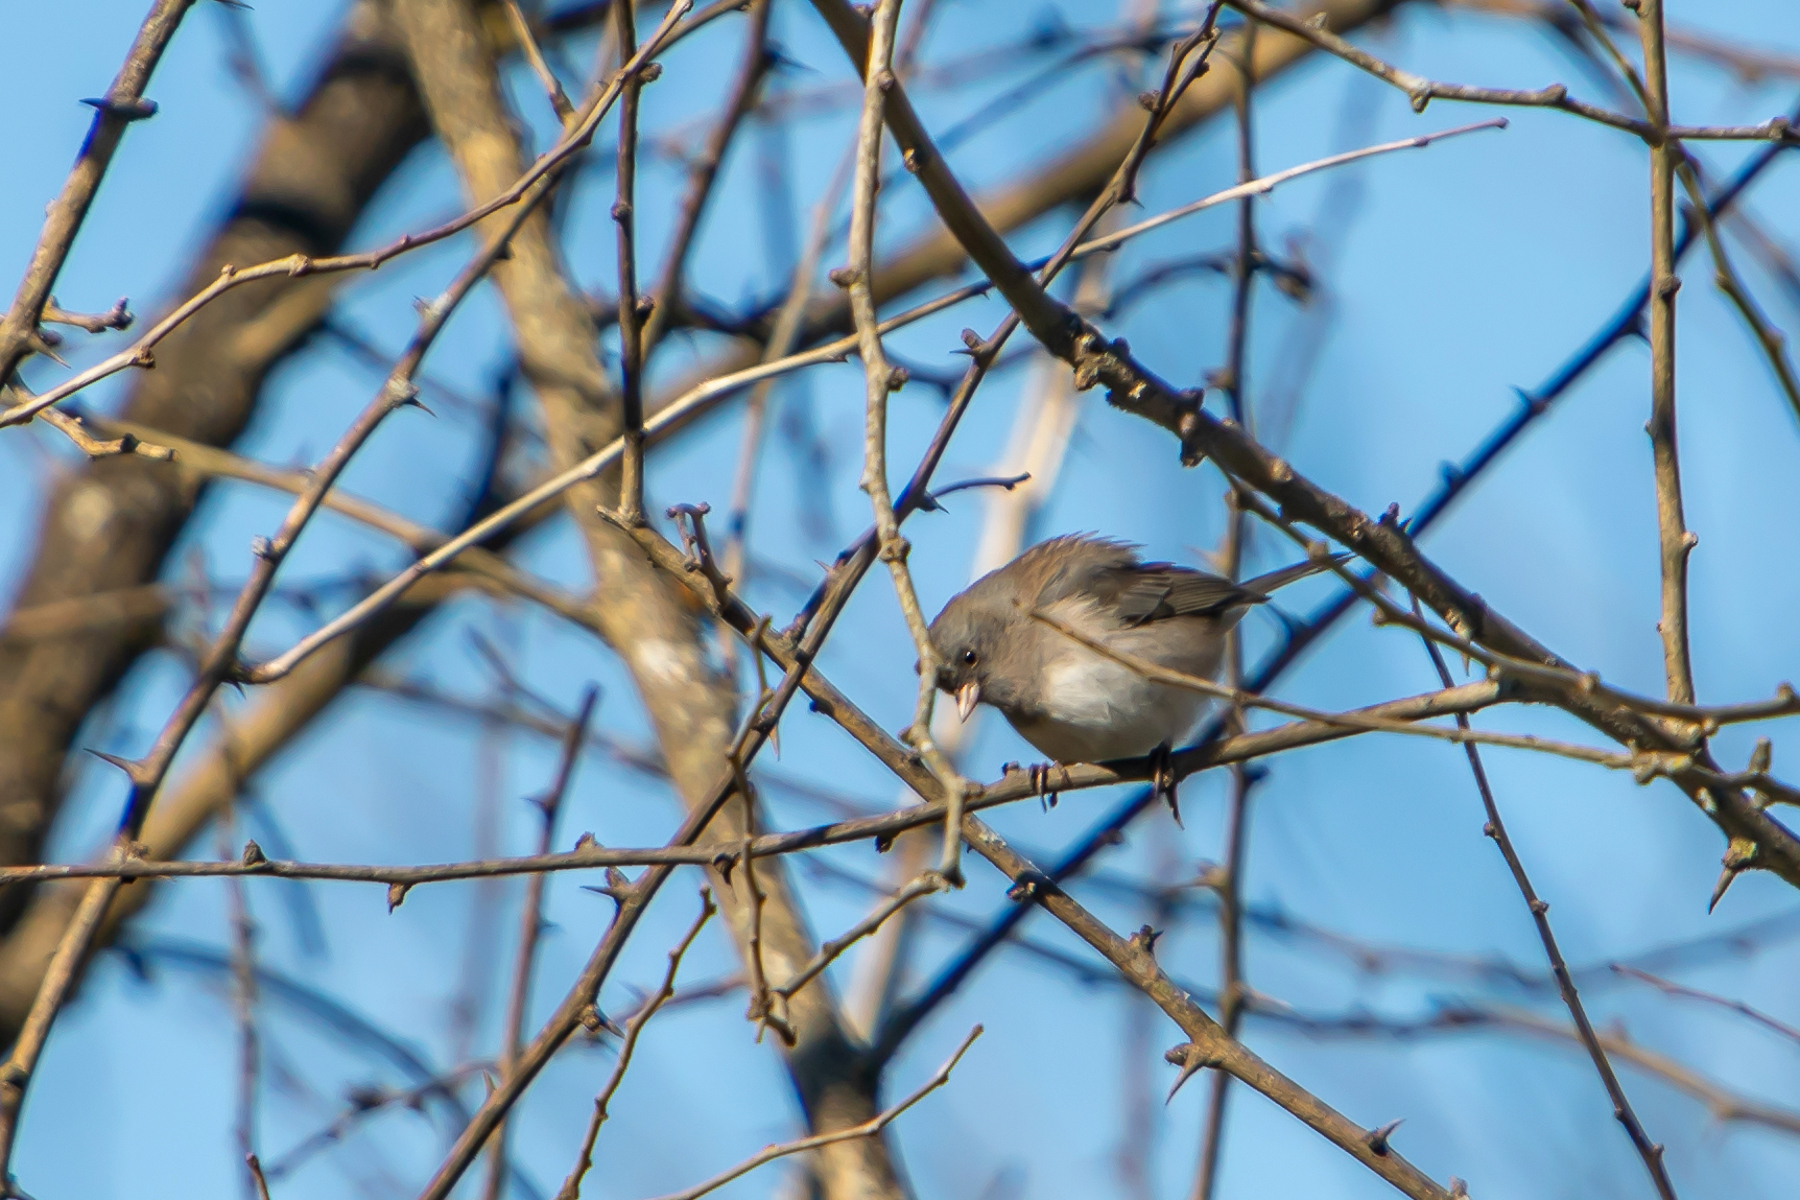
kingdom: Animalia
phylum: Chordata
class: Aves
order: Passeriformes
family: Passerellidae
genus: Junco
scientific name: Junco hyemalis
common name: Dark-eyed junco
